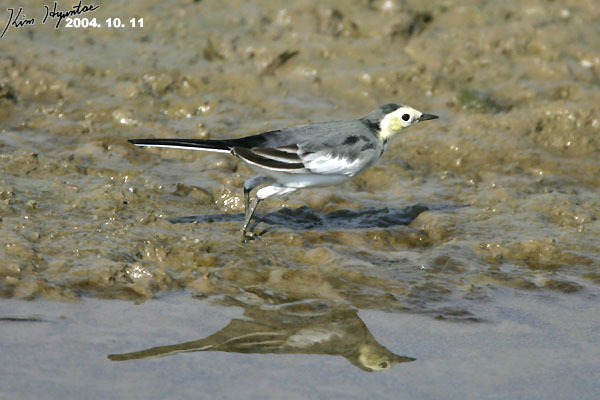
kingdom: Animalia
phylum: Chordata
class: Aves
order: Passeriformes
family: Motacillidae
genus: Motacilla
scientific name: Motacilla alba
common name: White wagtail
